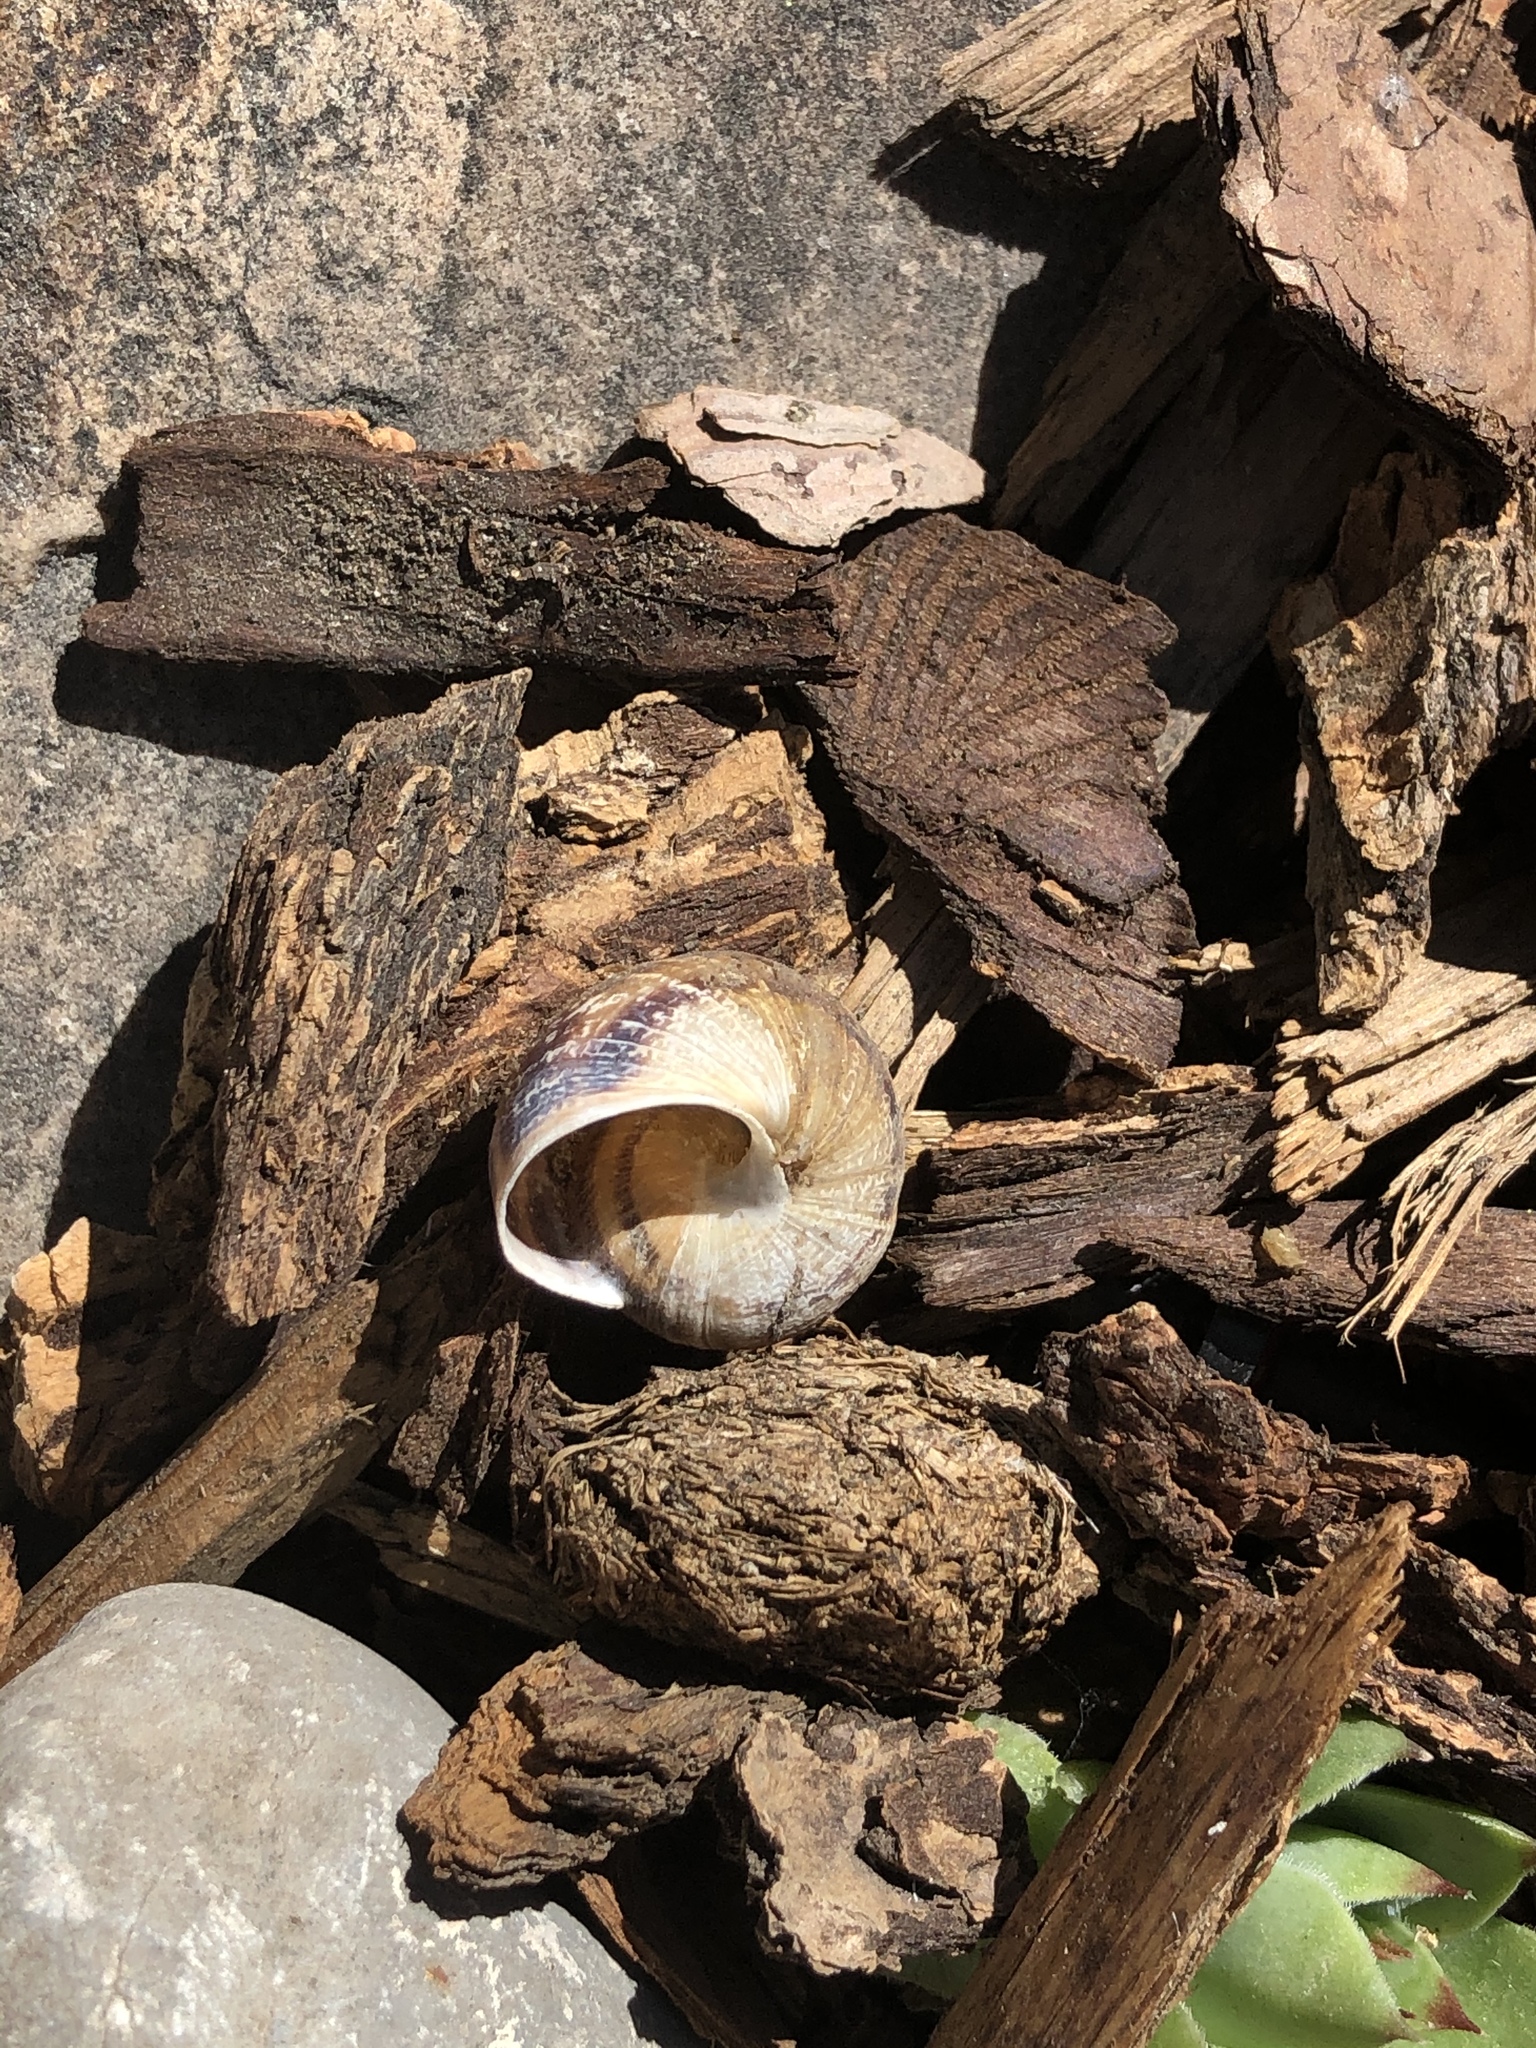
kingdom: Animalia
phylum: Mollusca
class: Gastropoda
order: Stylommatophora
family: Helicidae
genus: Cornu
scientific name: Cornu aspersum
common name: Brown garden snail
